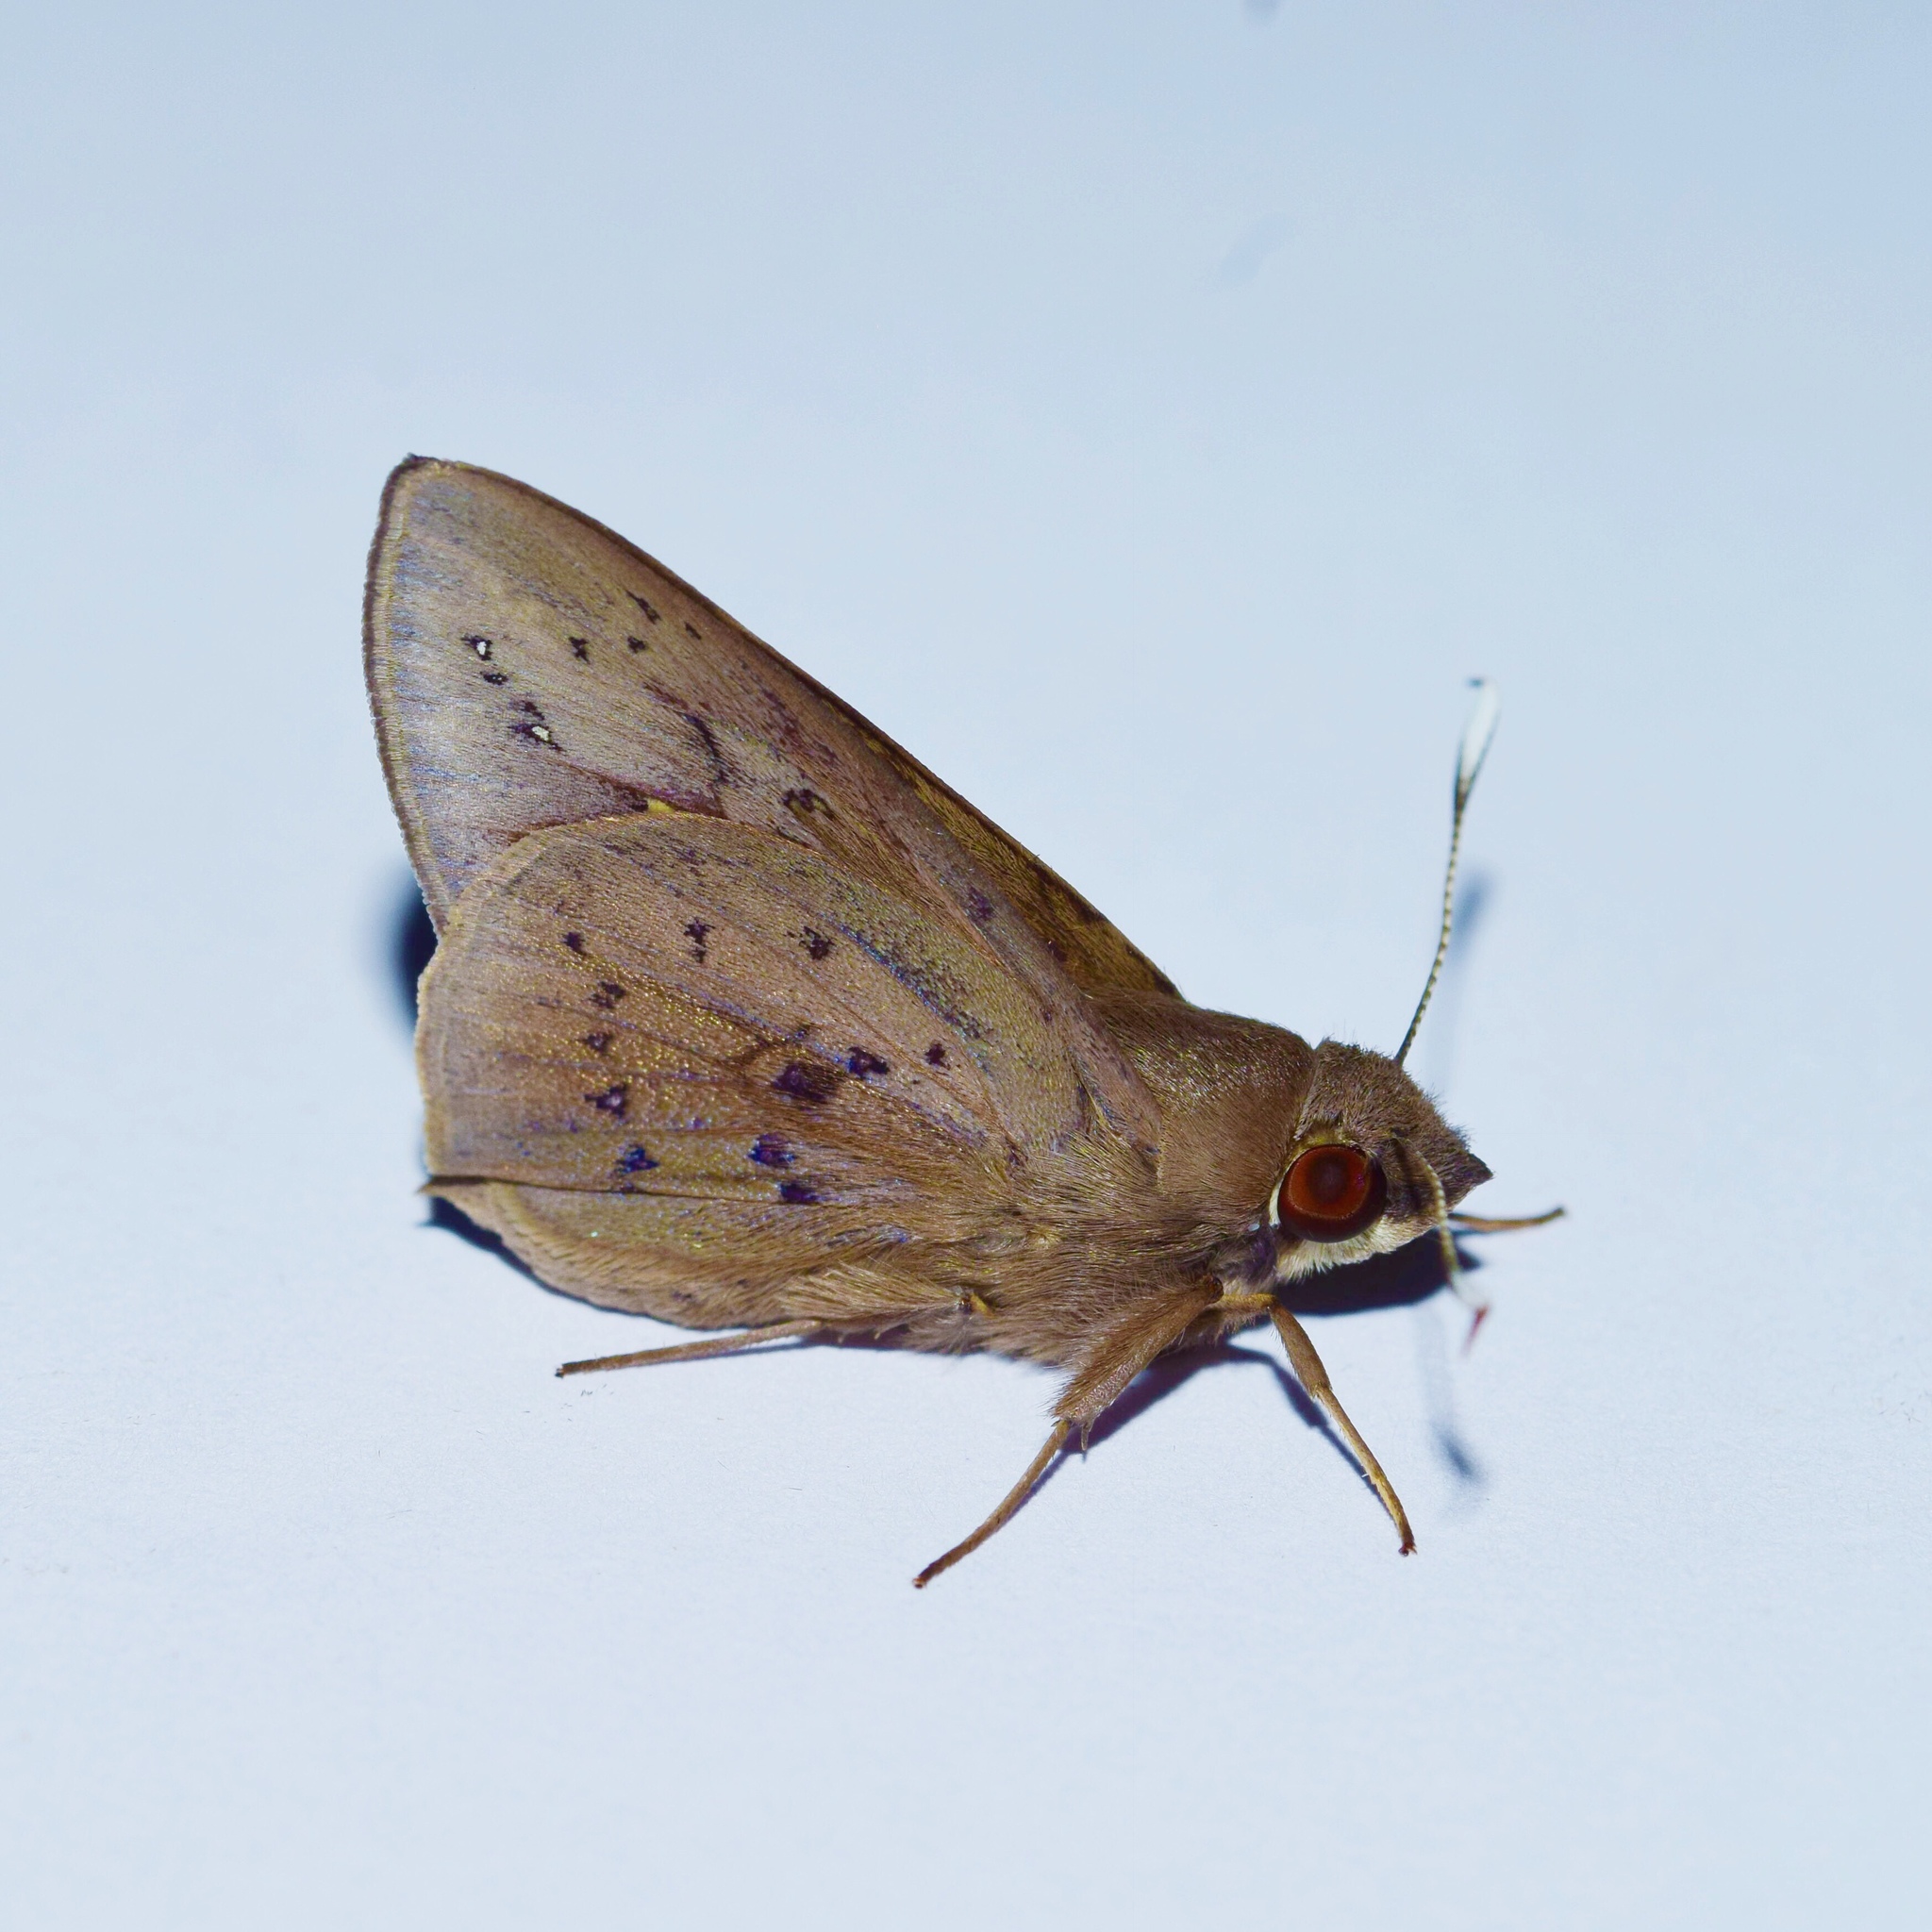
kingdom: Animalia
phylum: Arthropoda
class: Insecta
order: Lepidoptera
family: Hesperiidae
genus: Zophopetes
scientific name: Zophopetes dysmephila
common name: Palm-tree nightfighter
